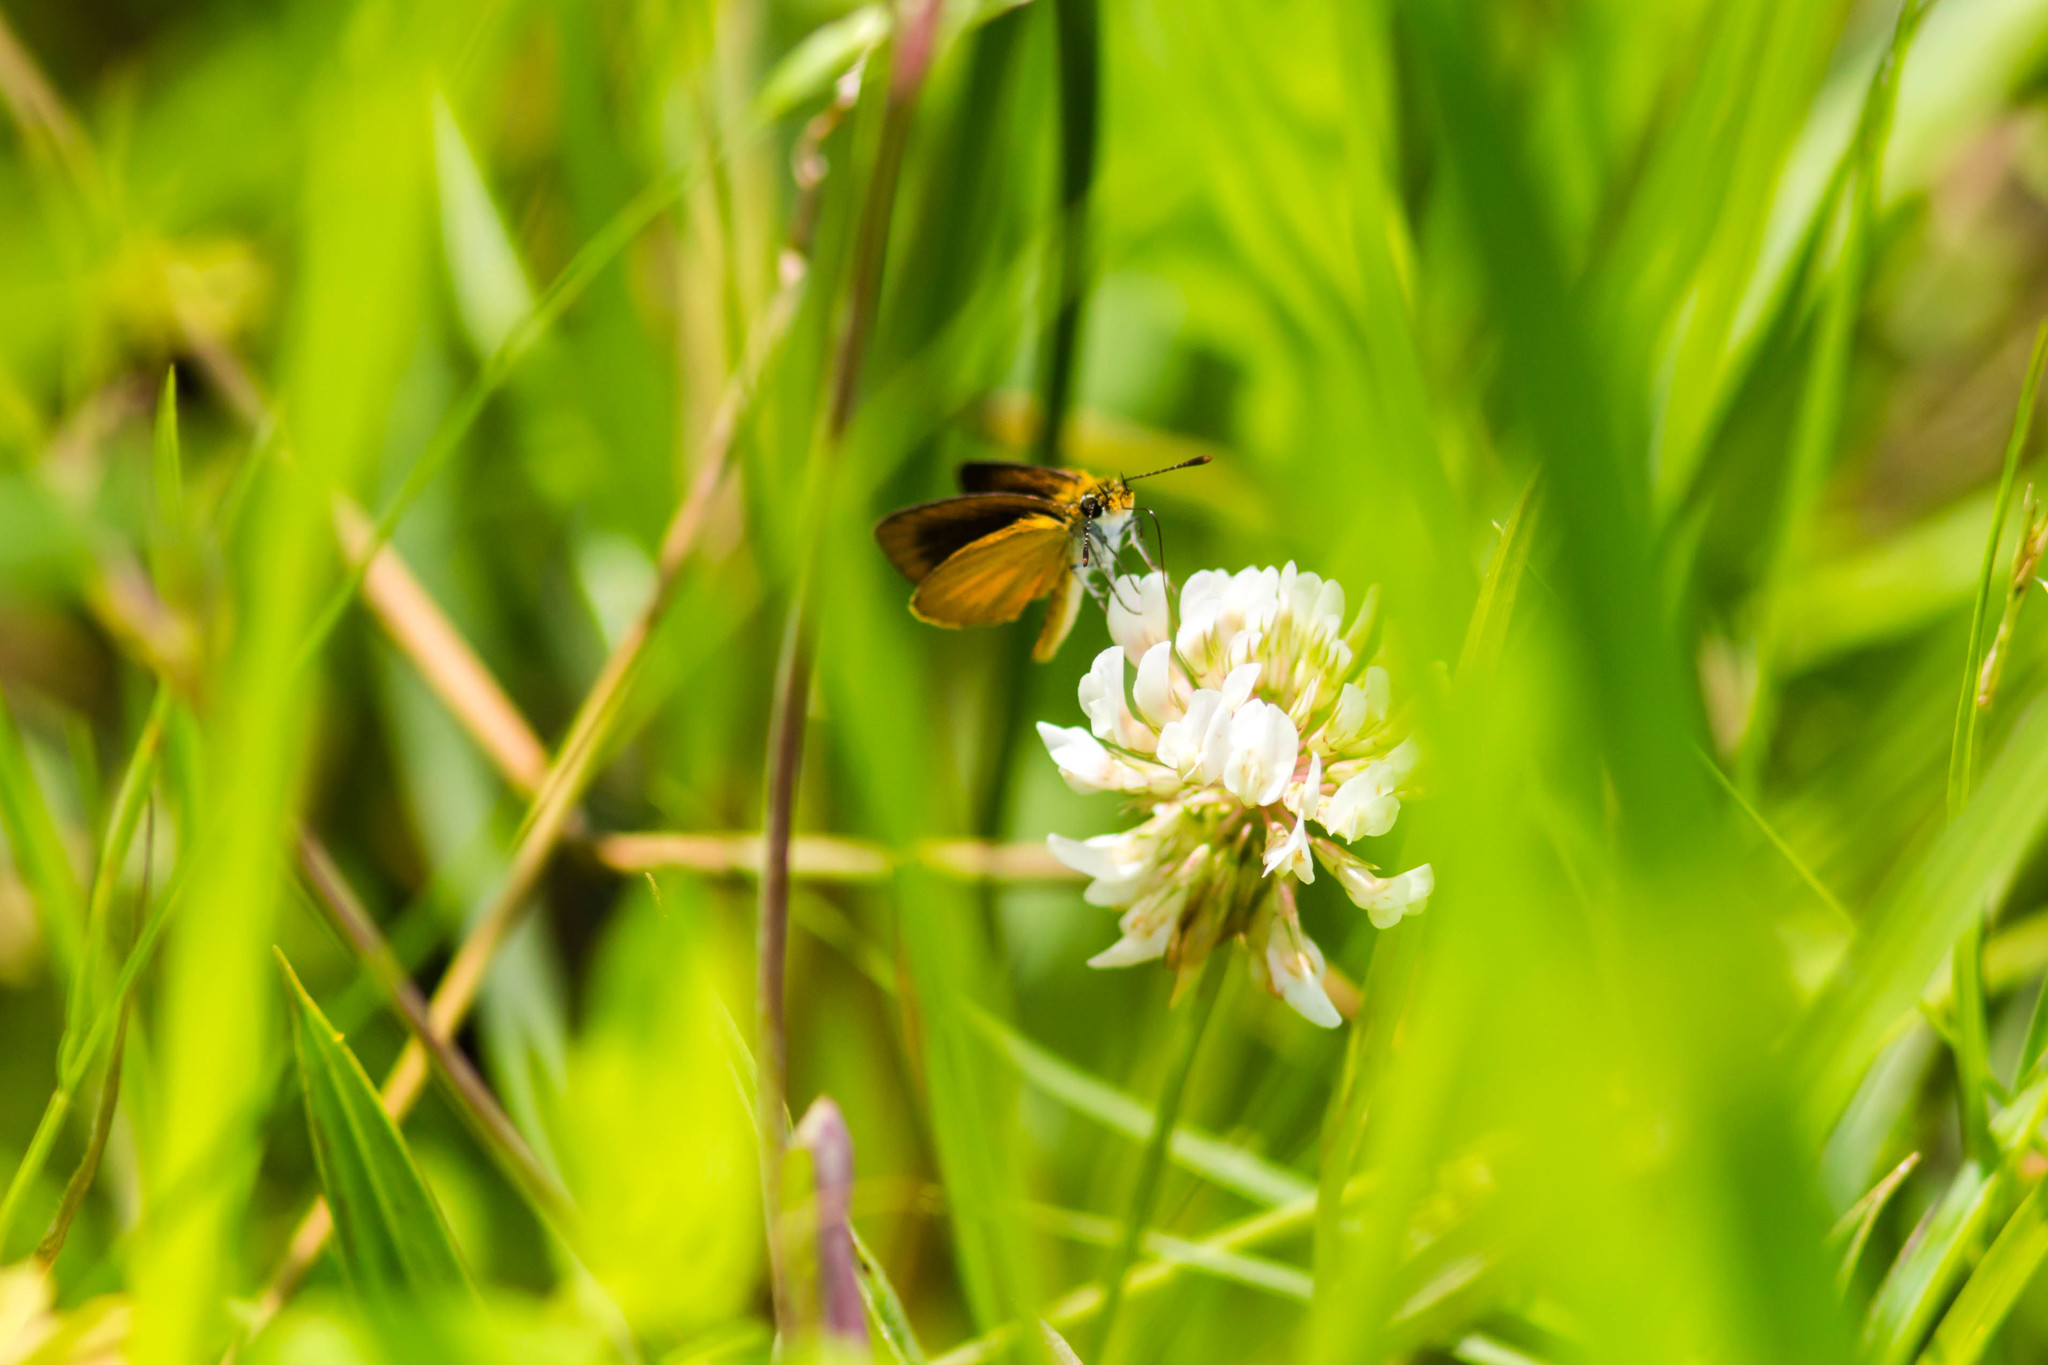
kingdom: Animalia
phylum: Arthropoda
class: Insecta
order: Lepidoptera
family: Hesperiidae
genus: Ancyloxypha
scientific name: Ancyloxypha numitor
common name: Least skipper
